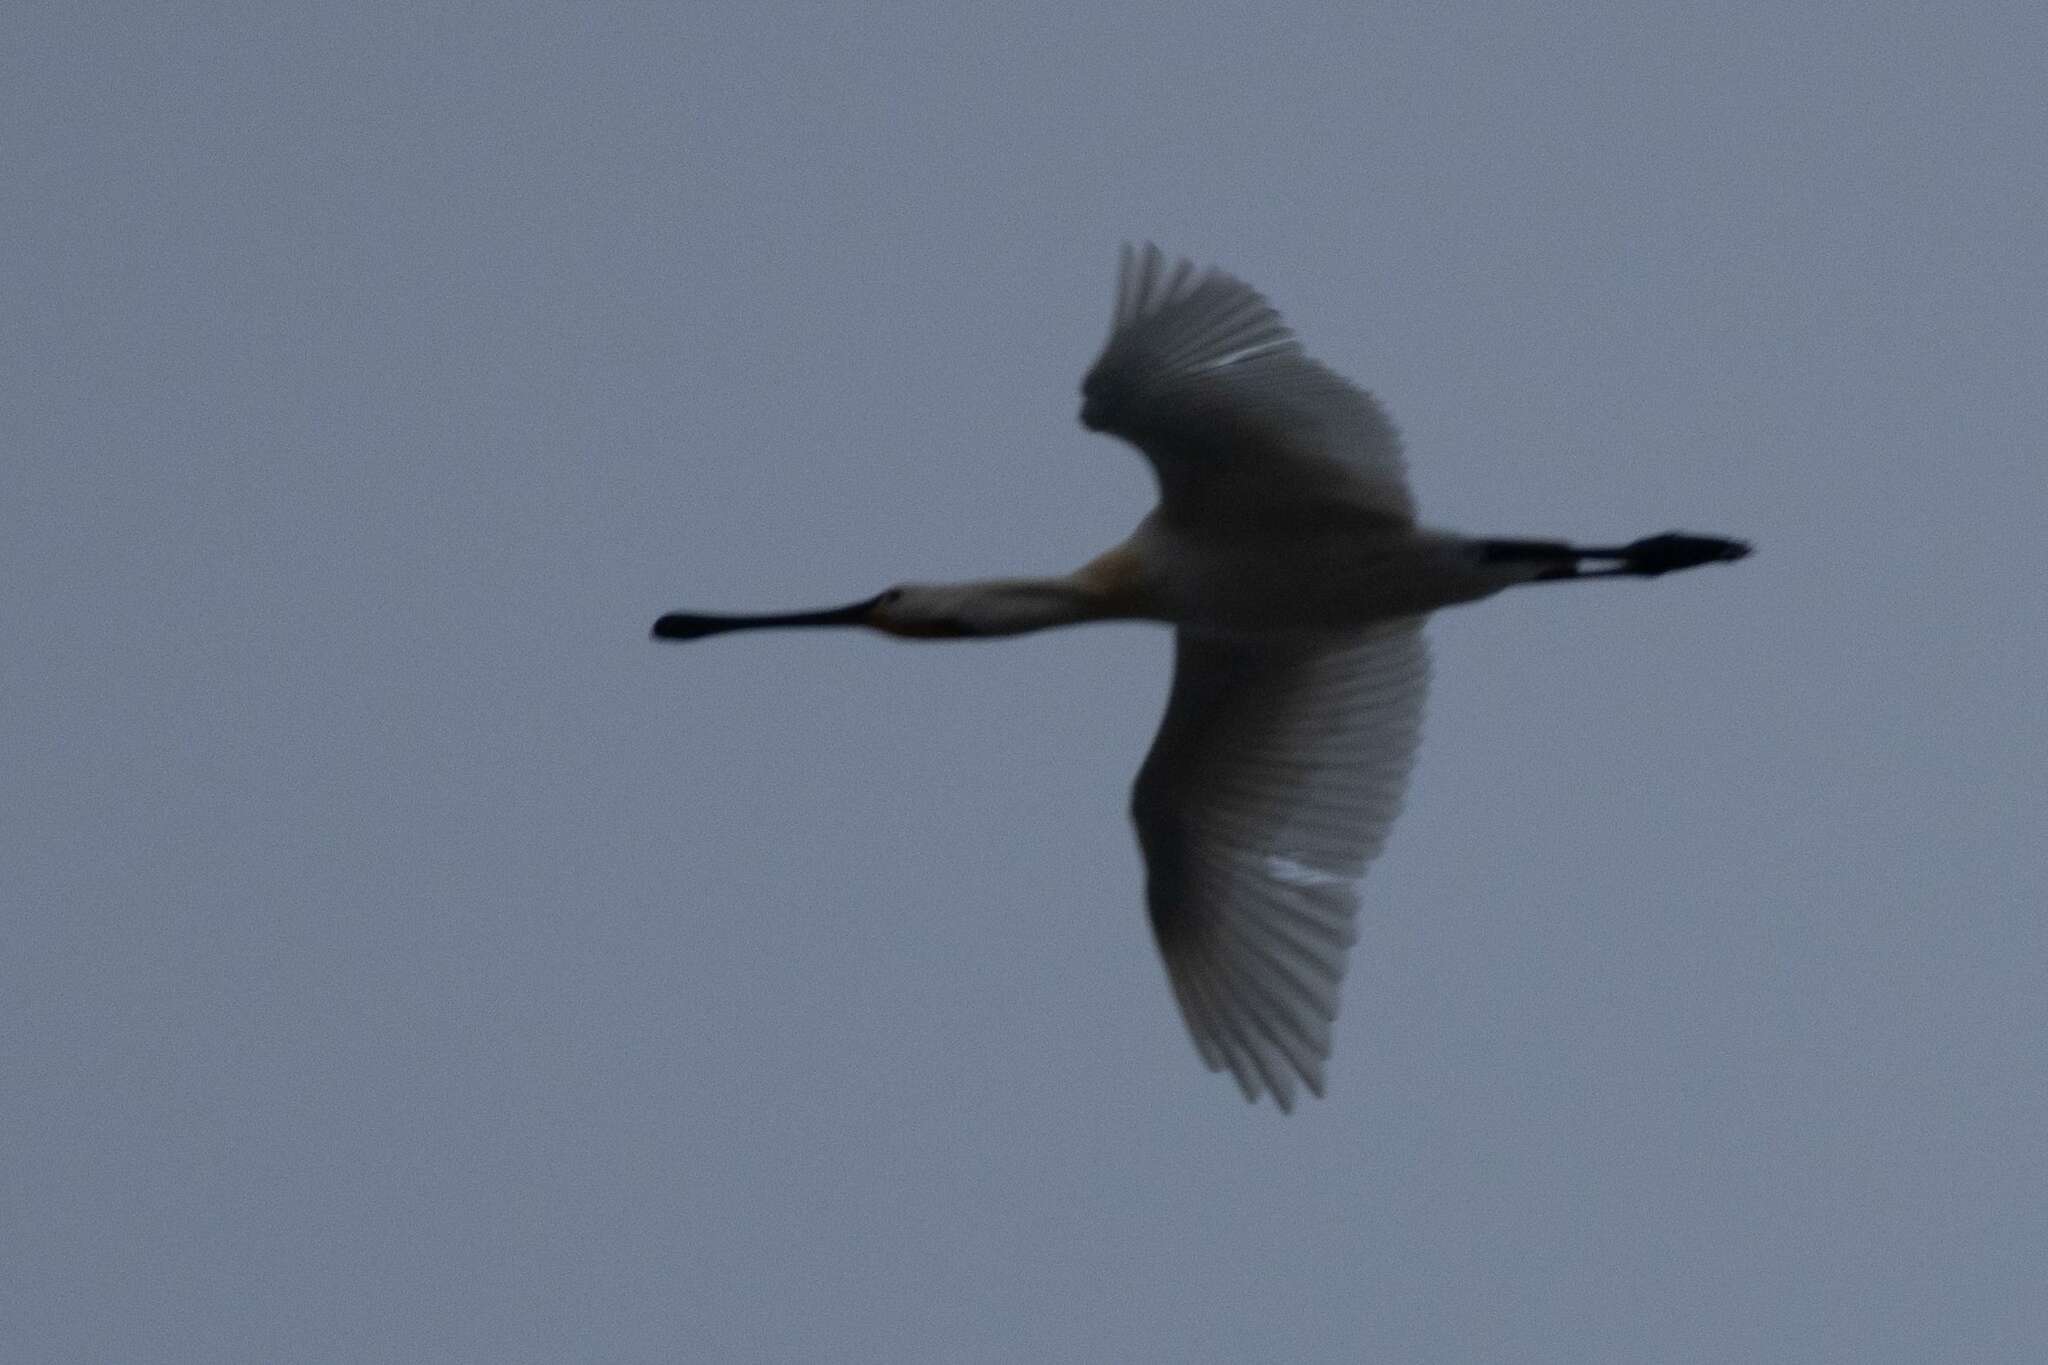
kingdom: Animalia
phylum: Chordata
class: Aves
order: Pelecaniformes
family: Threskiornithidae
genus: Platalea
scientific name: Platalea leucorodia
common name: Eurasian spoonbill
